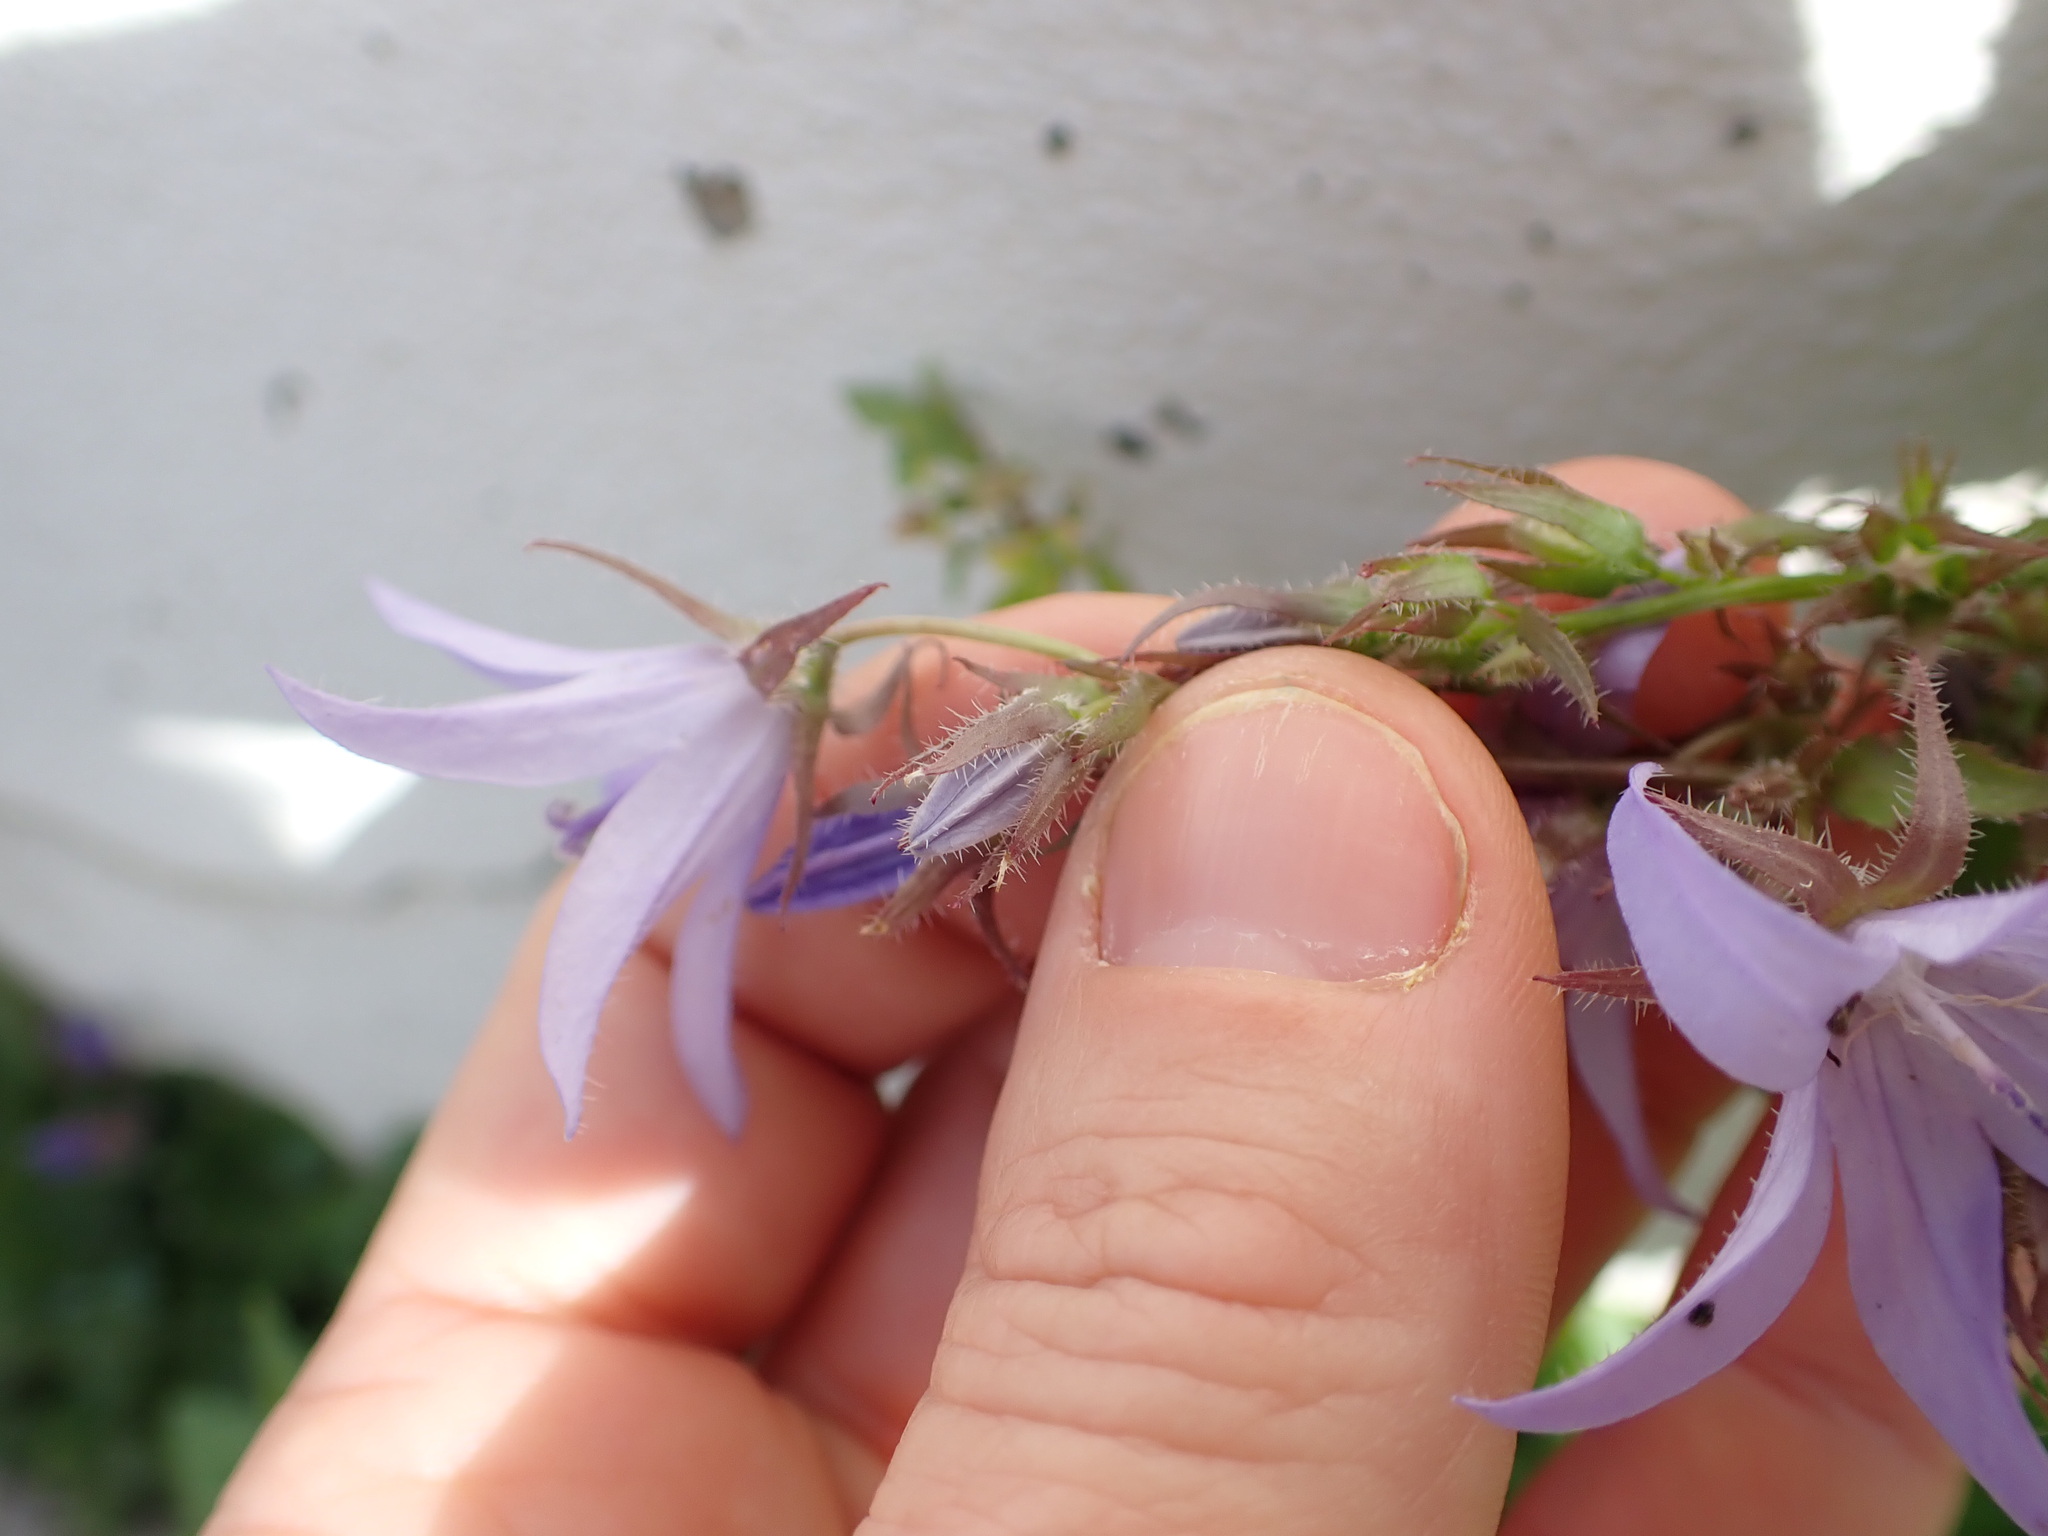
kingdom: Plantae
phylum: Tracheophyta
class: Magnoliopsida
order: Asterales
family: Campanulaceae
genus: Campanula
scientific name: Campanula poscharskyana
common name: Trailing bellflower
